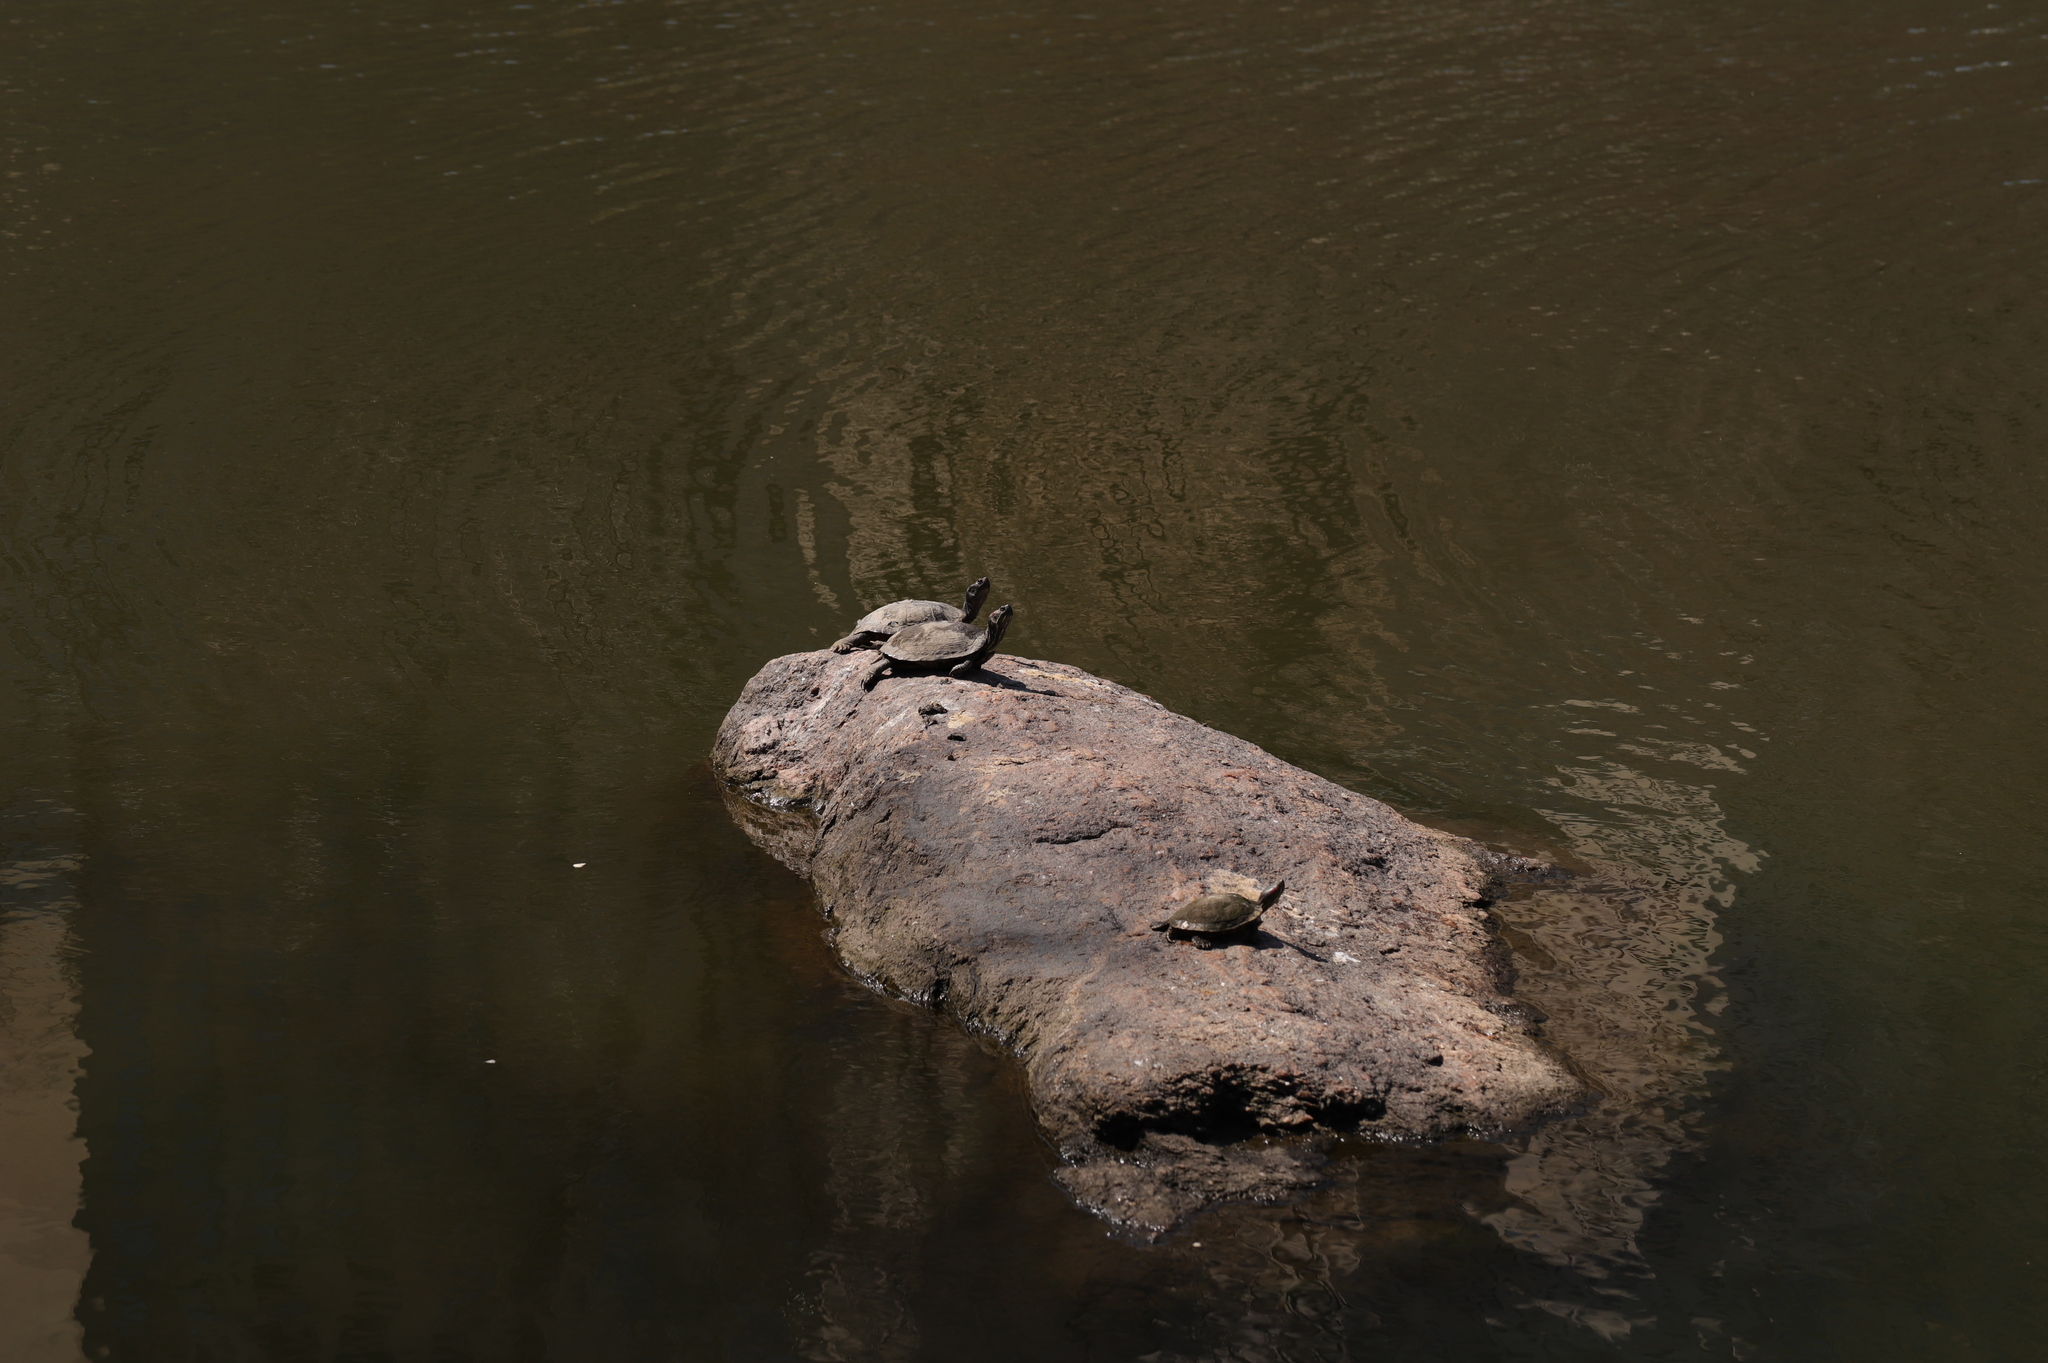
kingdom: Animalia
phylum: Chordata
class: Testudines
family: Emydidae
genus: Trachemys
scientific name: Trachemys scripta
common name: Slider
